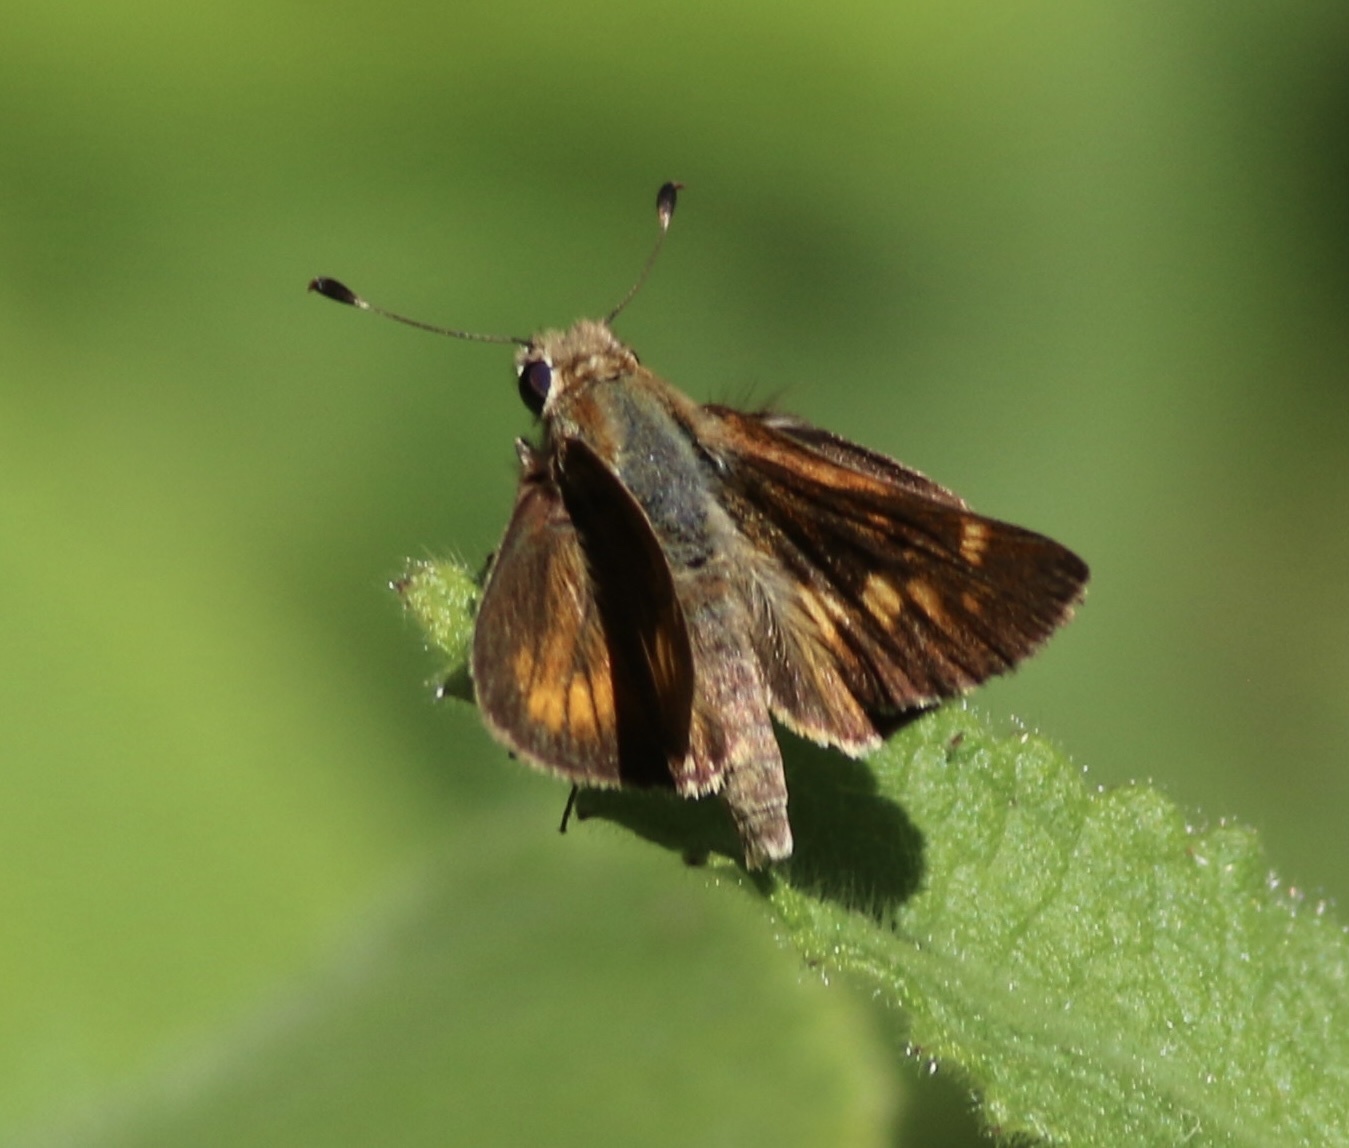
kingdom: Animalia
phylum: Arthropoda
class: Insecta
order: Lepidoptera
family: Hesperiidae
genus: Lon
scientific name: Lon melane
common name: Umber skipper
